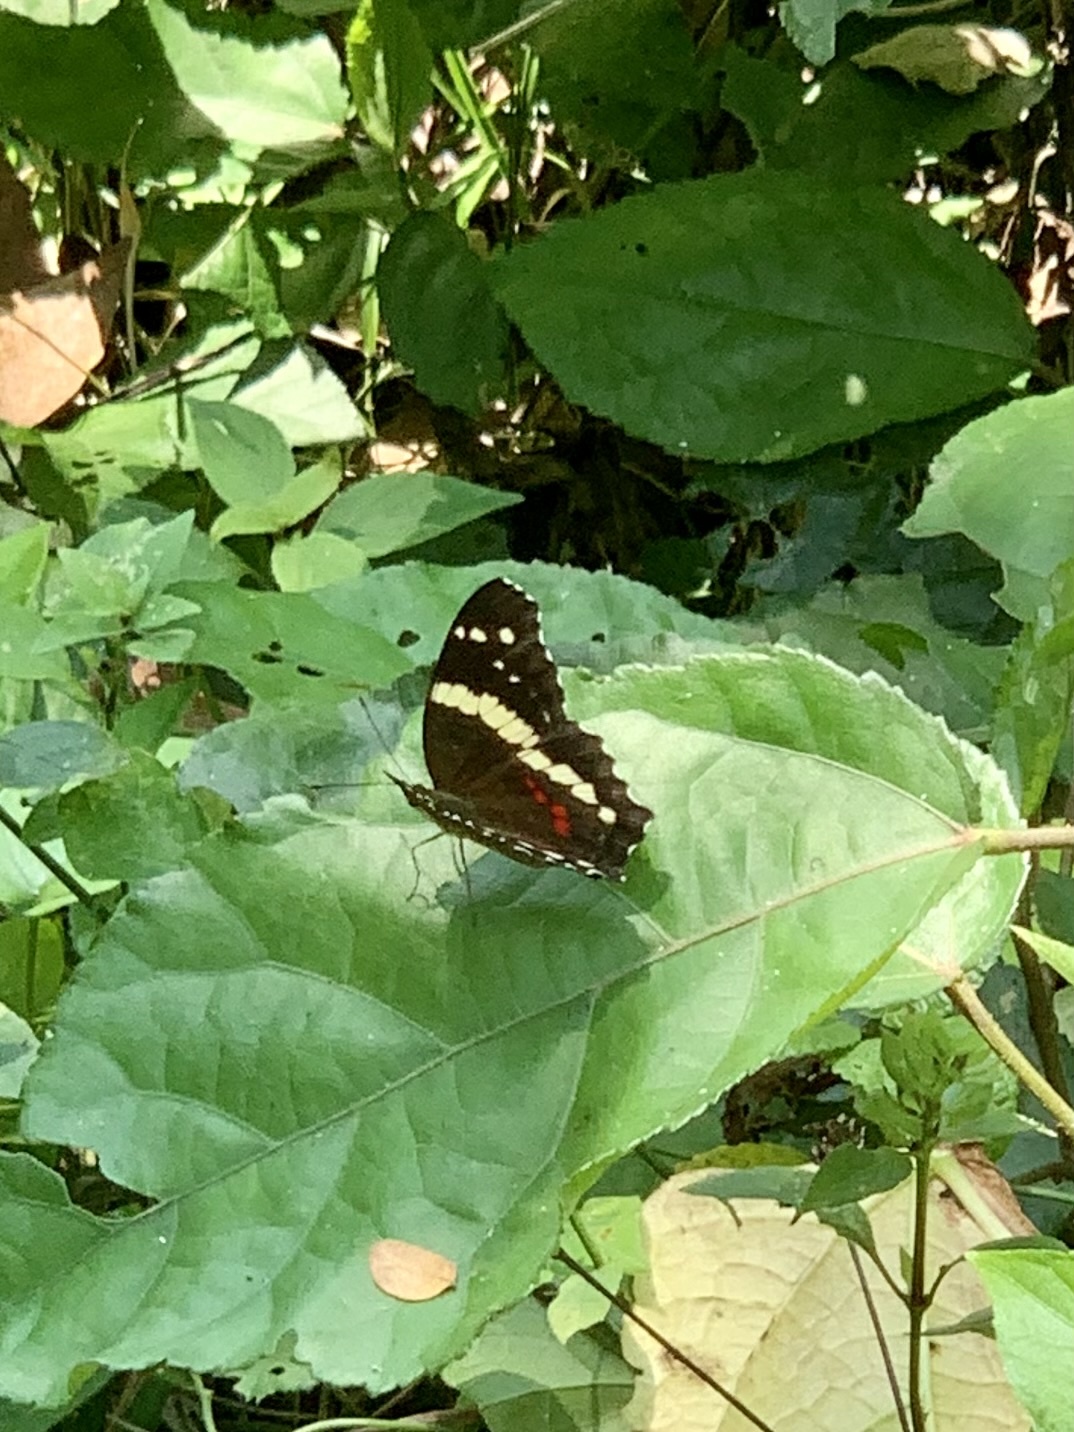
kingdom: Animalia
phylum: Arthropoda
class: Insecta
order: Lepidoptera
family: Nymphalidae
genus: Anartia
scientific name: Anartia fatima
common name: Banded peacock
